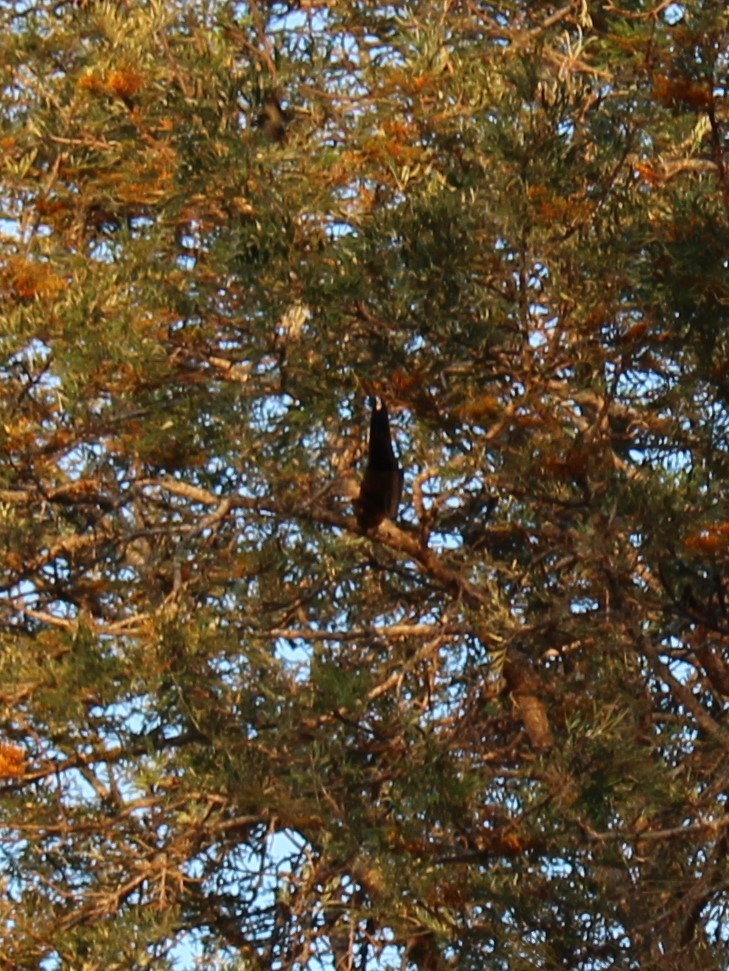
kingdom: Animalia
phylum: Chordata
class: Mammalia
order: Chiroptera
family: Pteropodidae
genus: Pteropus
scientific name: Pteropus alecto
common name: Black flying fox
